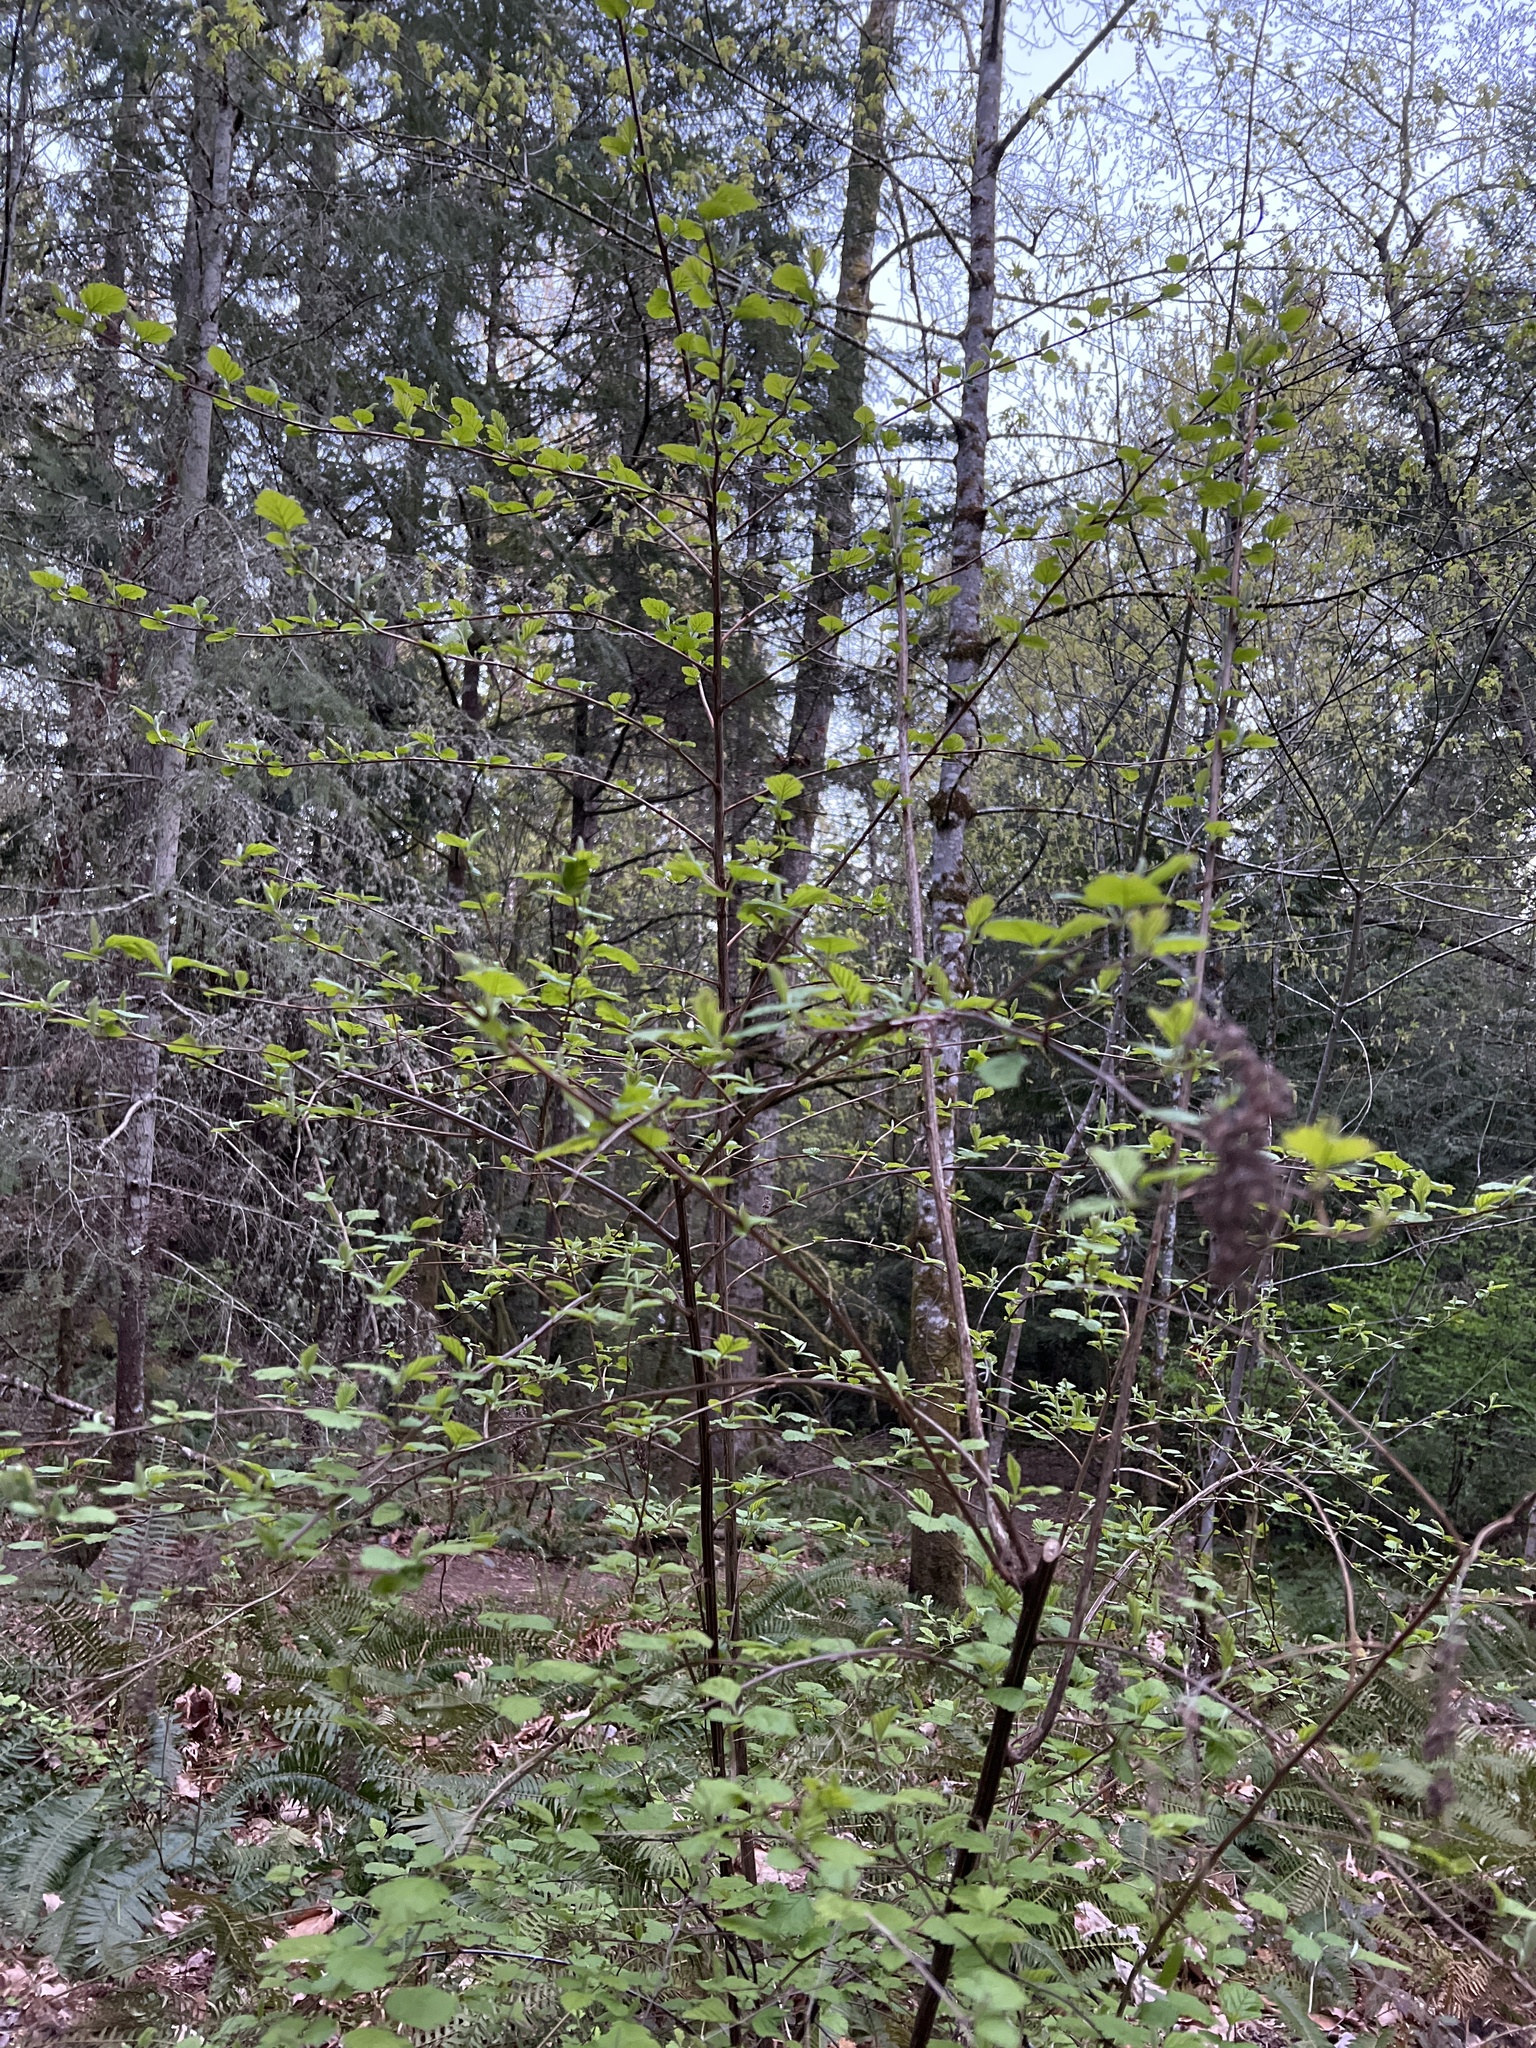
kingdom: Plantae
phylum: Tracheophyta
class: Magnoliopsida
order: Rosales
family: Rosaceae
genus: Holodiscus
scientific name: Holodiscus discolor
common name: Oceanspray
